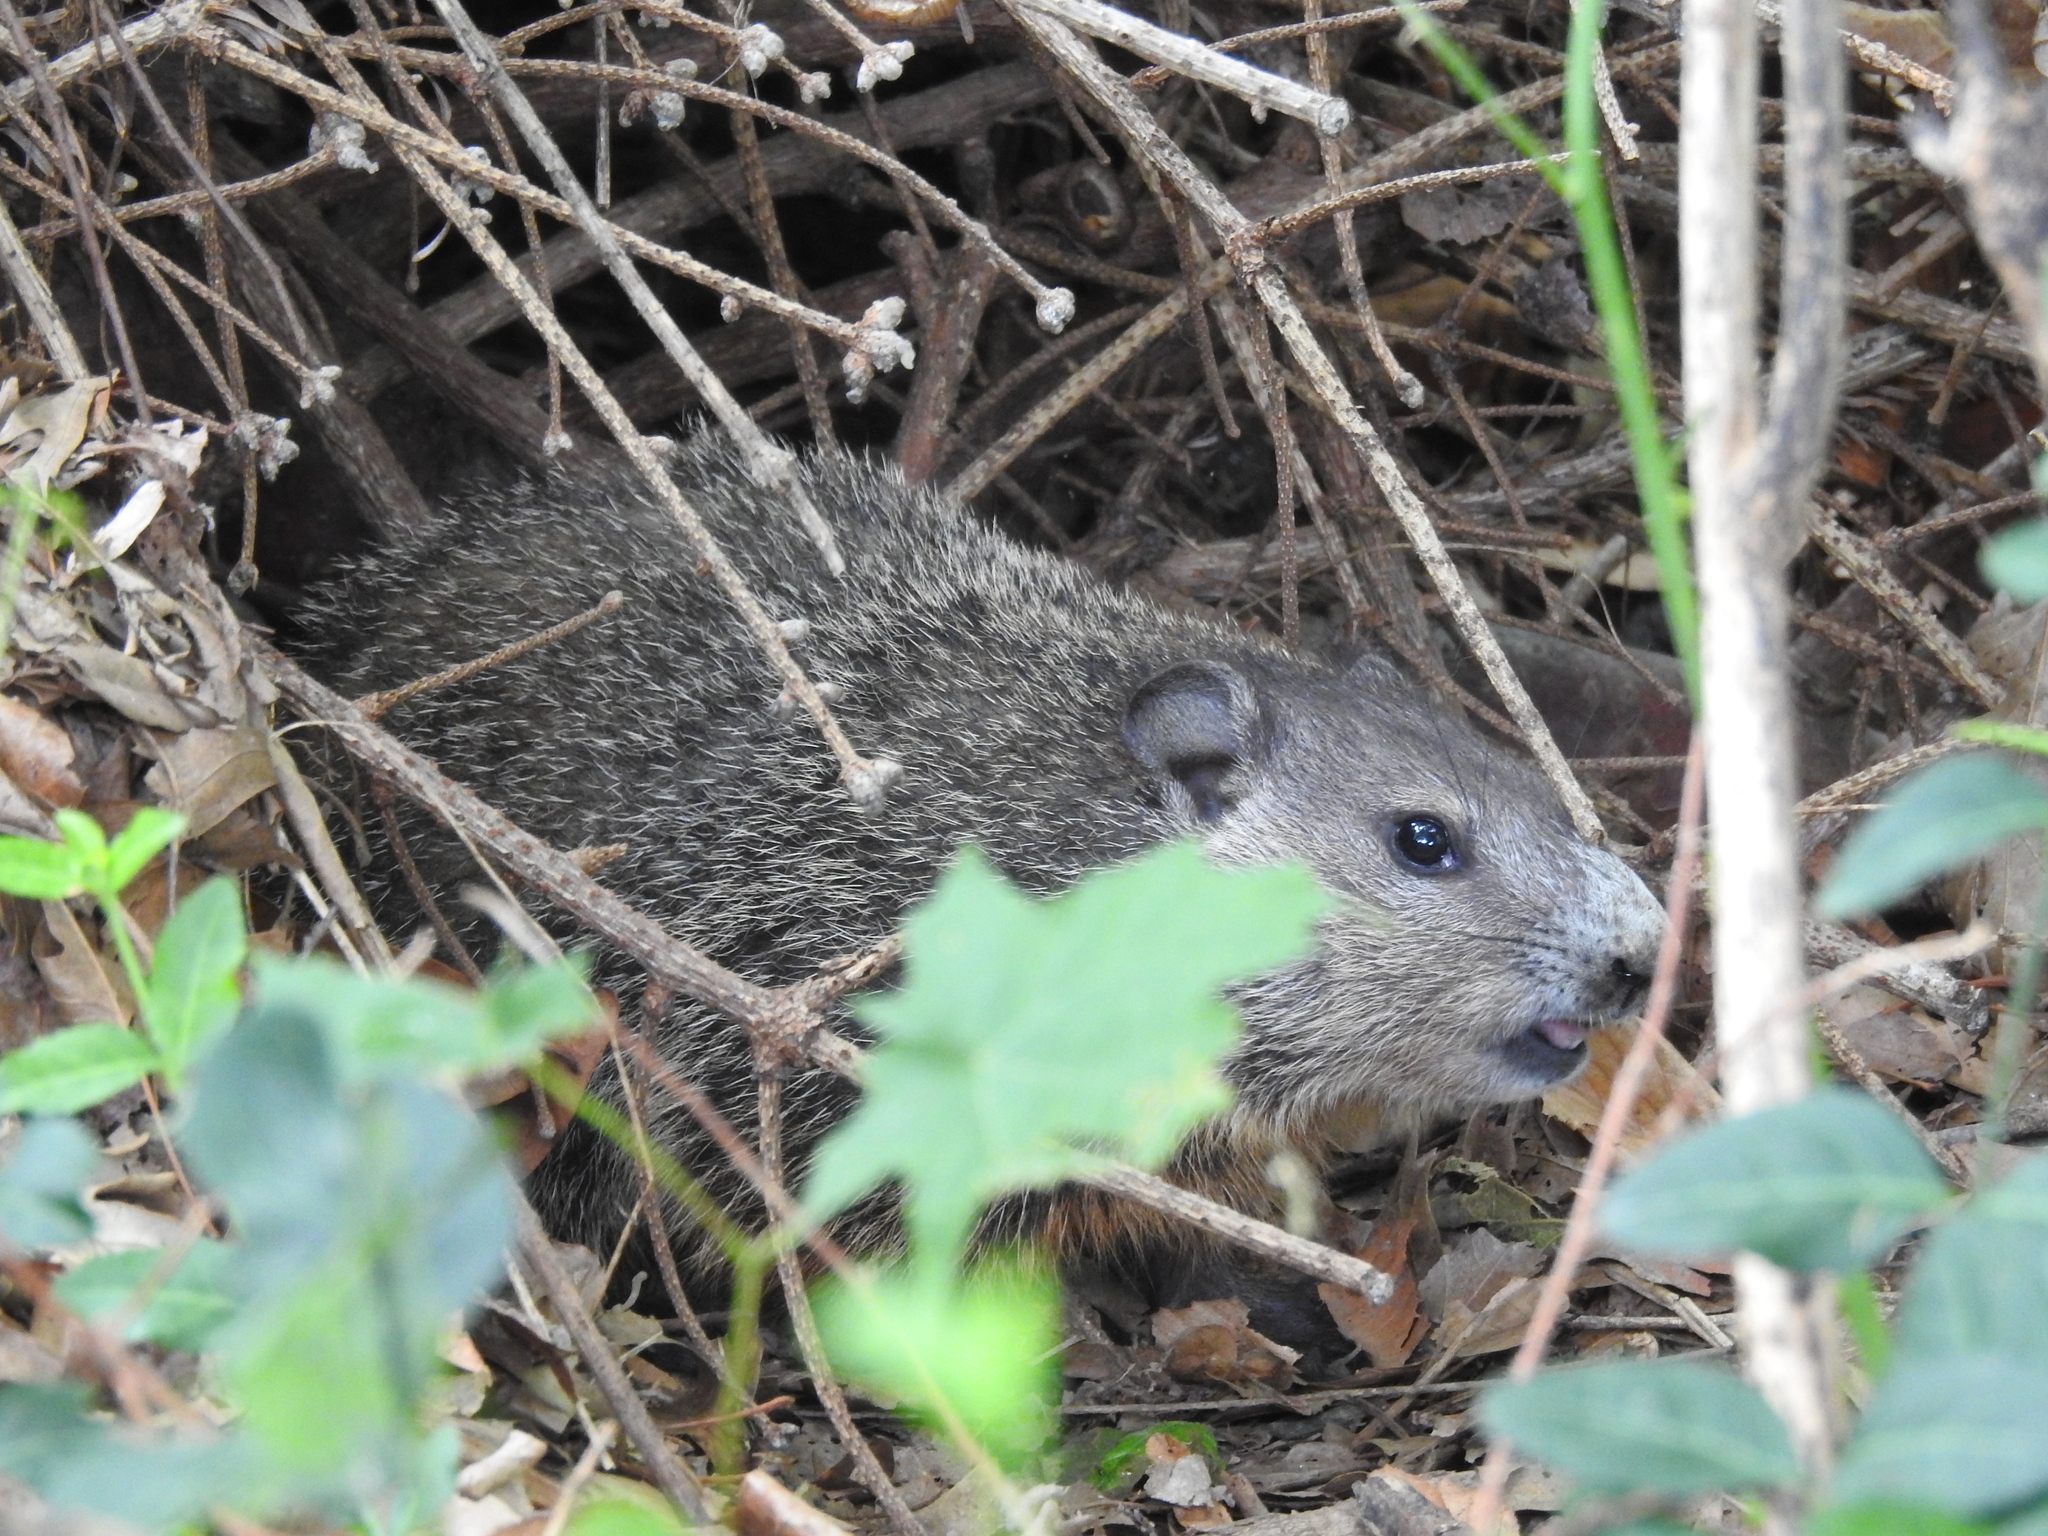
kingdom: Animalia
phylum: Chordata
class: Mammalia
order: Rodentia
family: Sciuridae
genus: Marmota
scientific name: Marmota monax
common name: Groundhog
